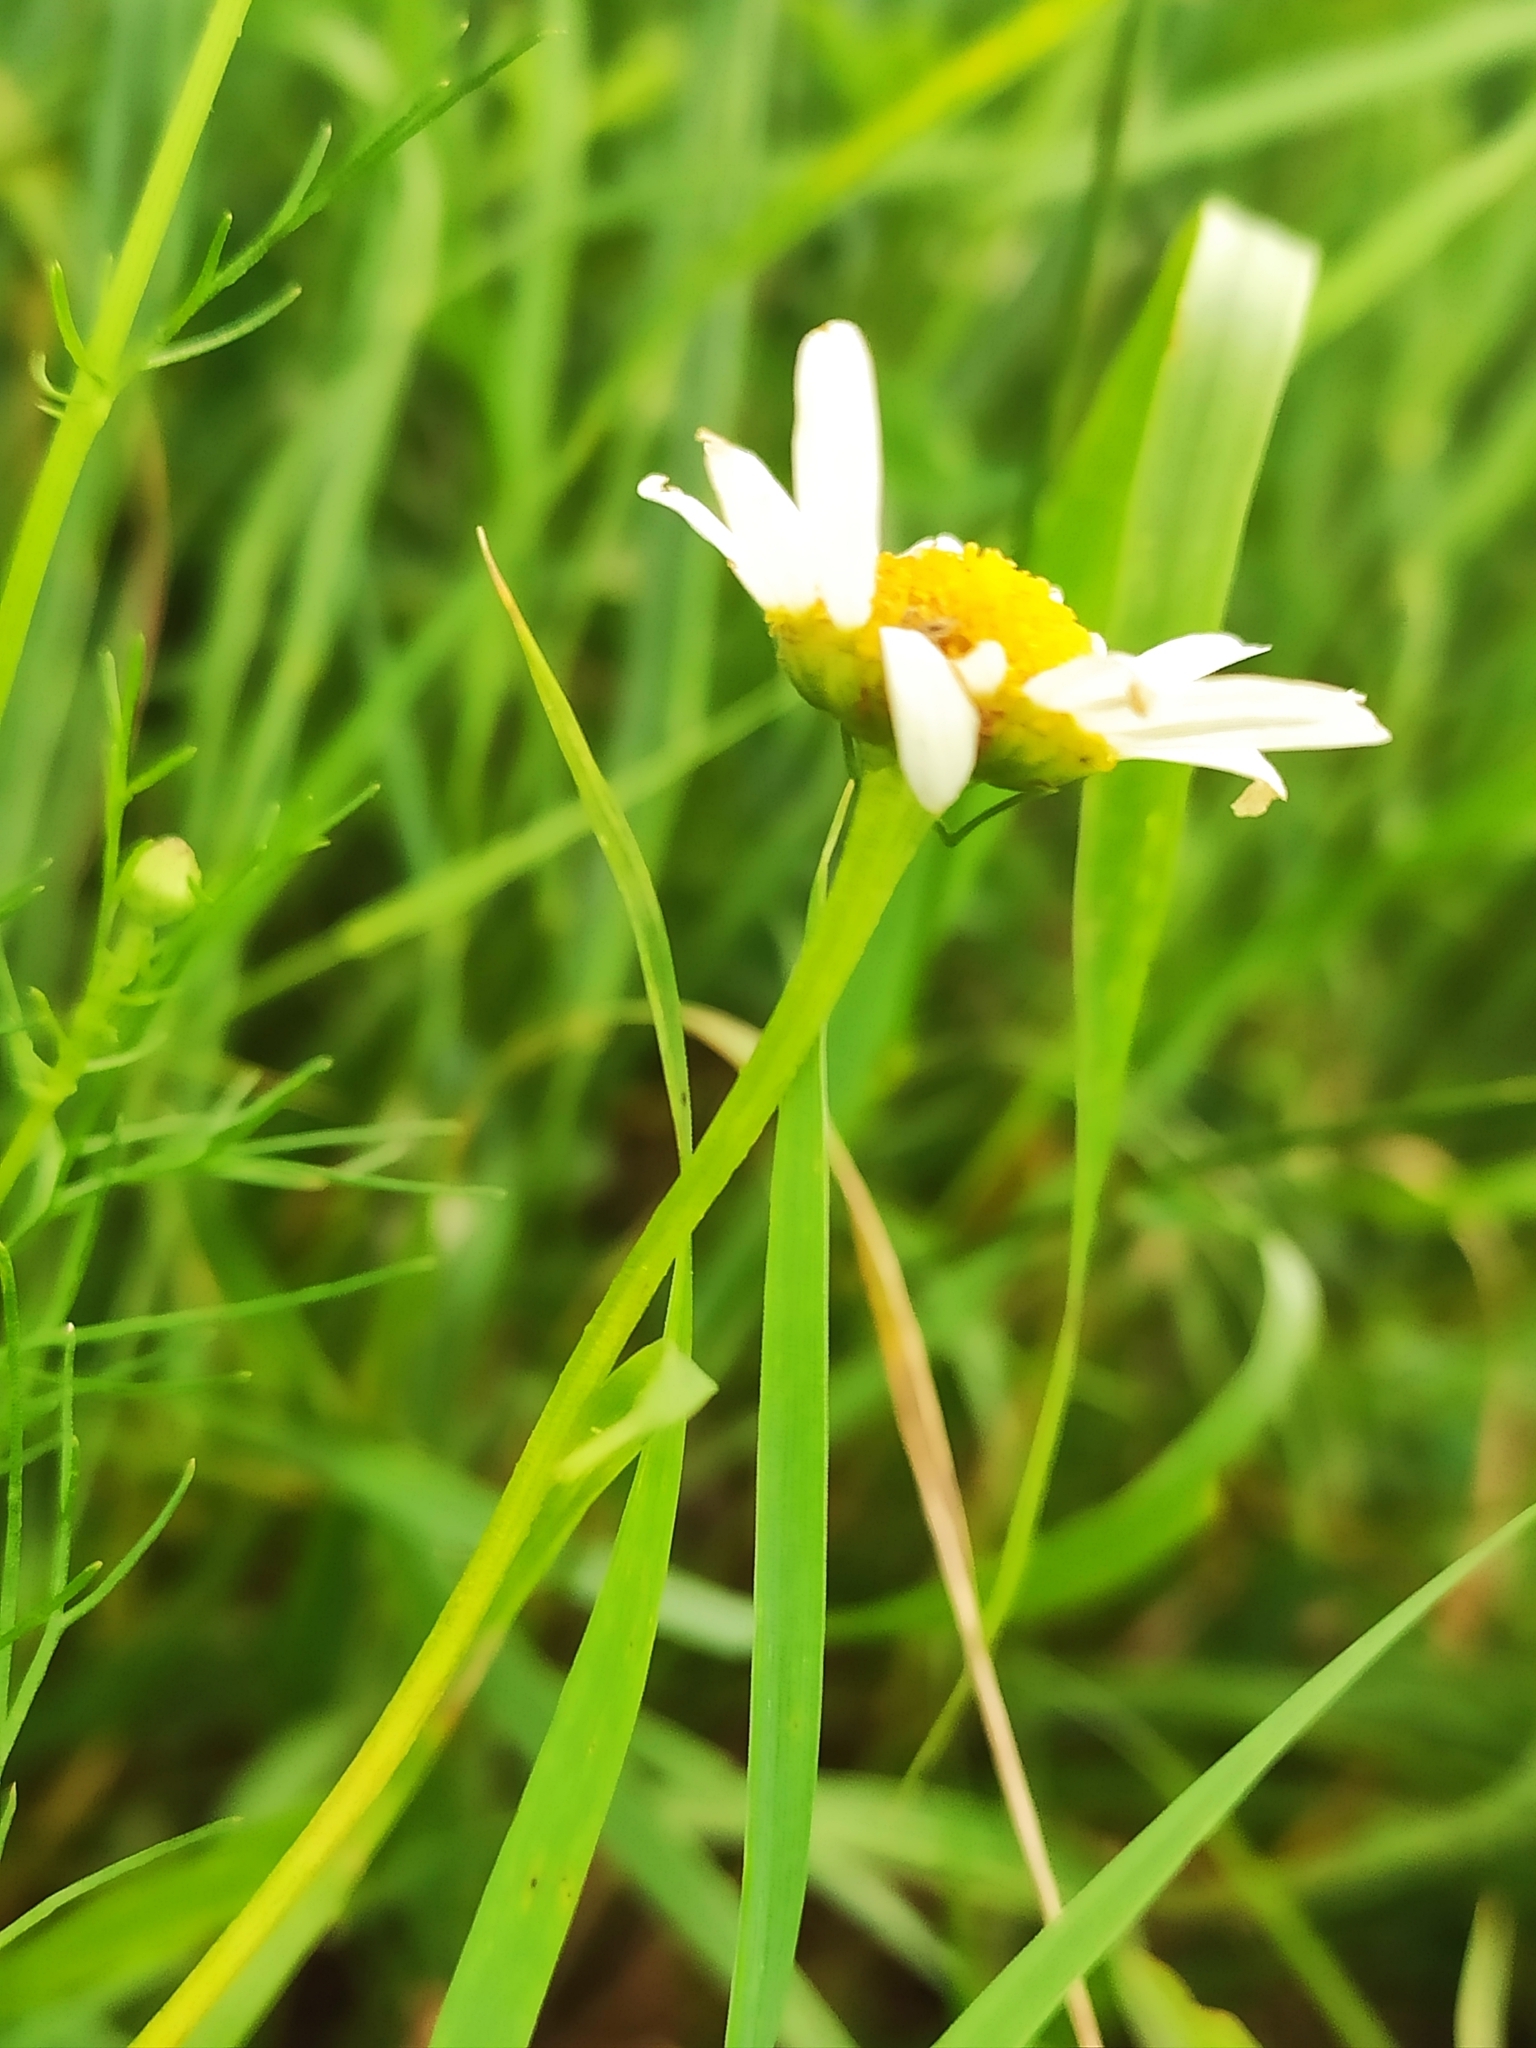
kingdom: Plantae
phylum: Tracheophyta
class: Magnoliopsida
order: Asterales
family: Asteraceae
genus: Tripleurospermum
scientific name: Tripleurospermum inodorum
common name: Scentless mayweed
